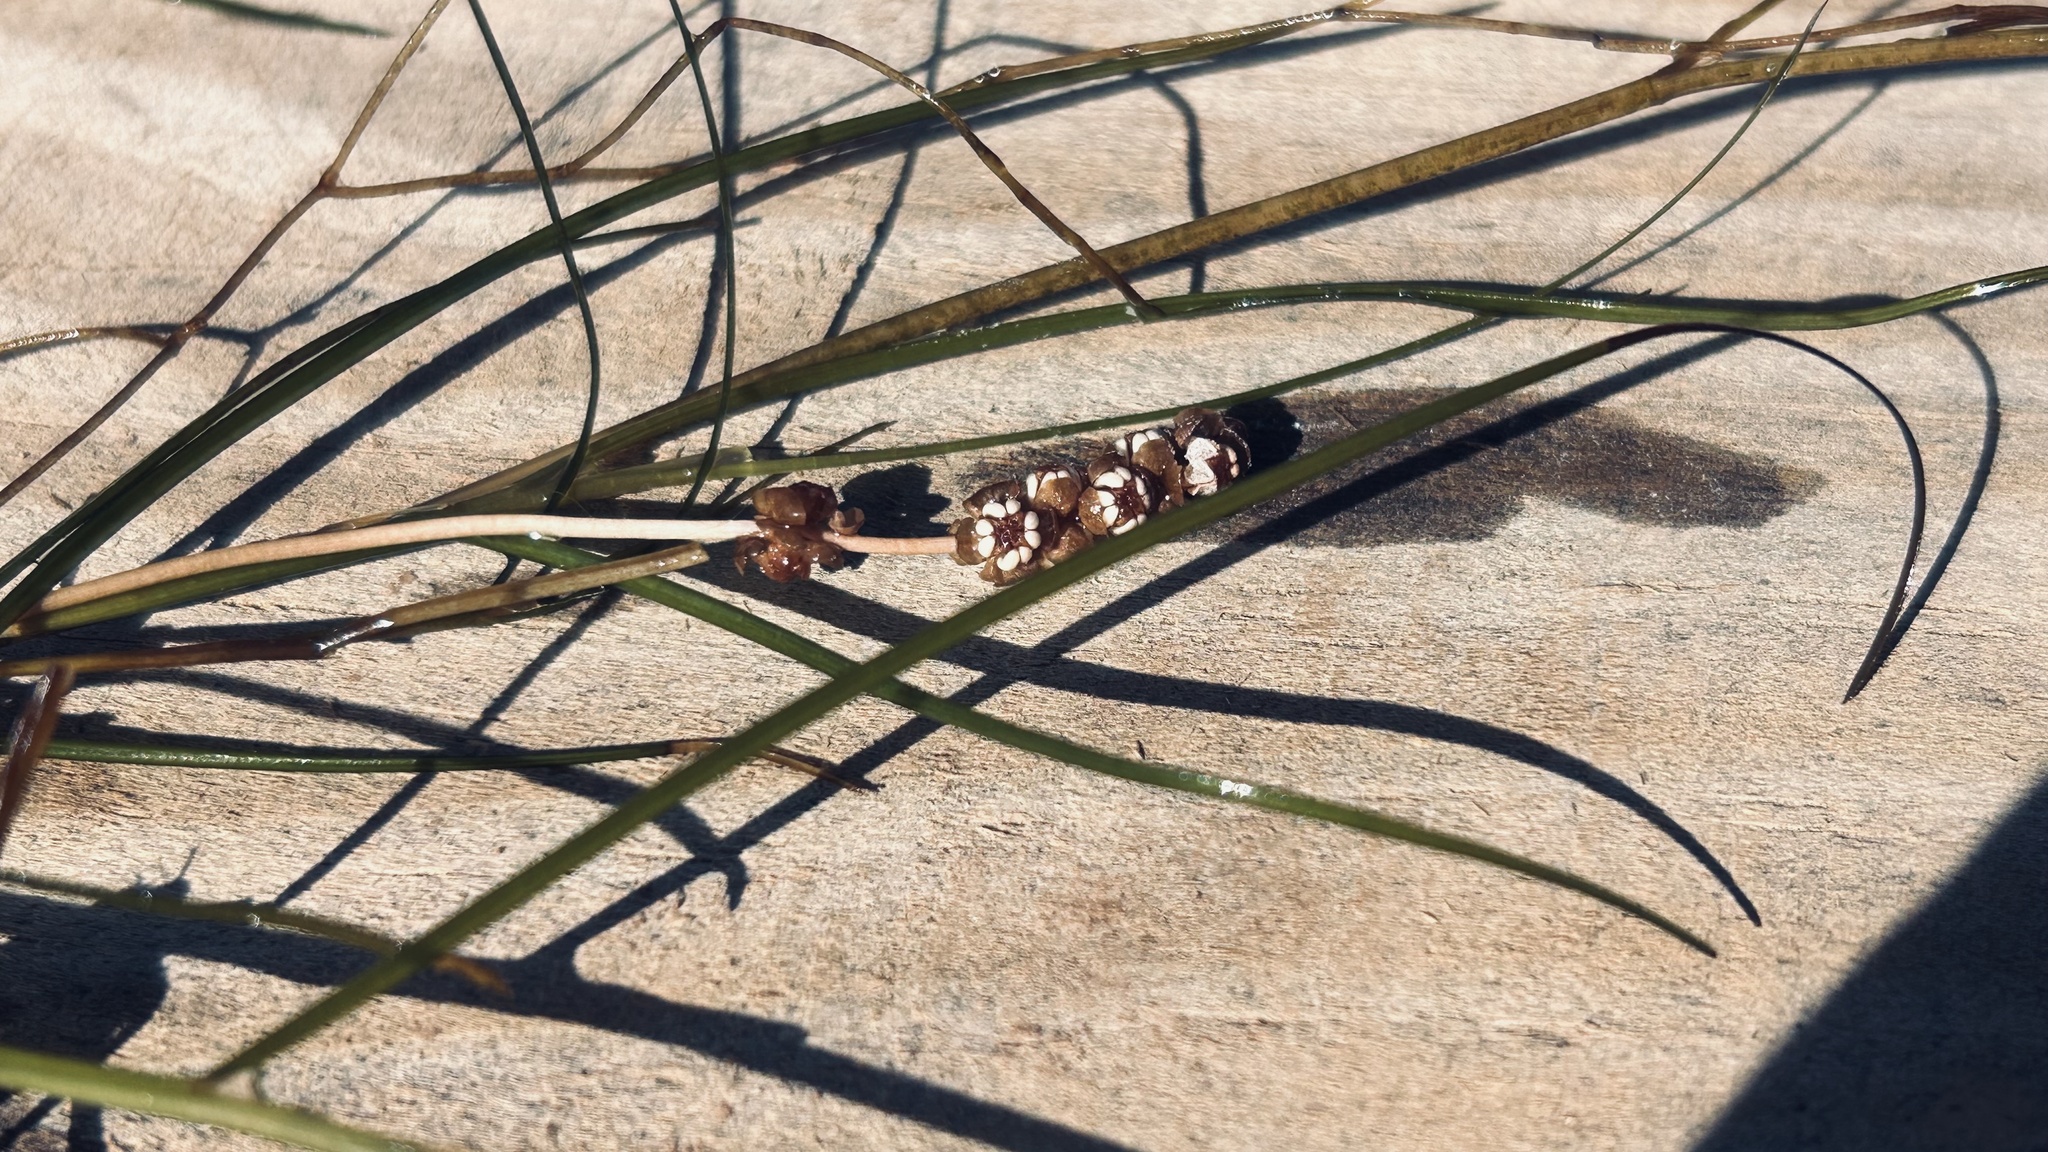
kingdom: Plantae
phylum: Tracheophyta
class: Liliopsida
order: Alismatales
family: Potamogetonaceae
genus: Stuckenia
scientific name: Stuckenia pectinata
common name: Sago pondweed
